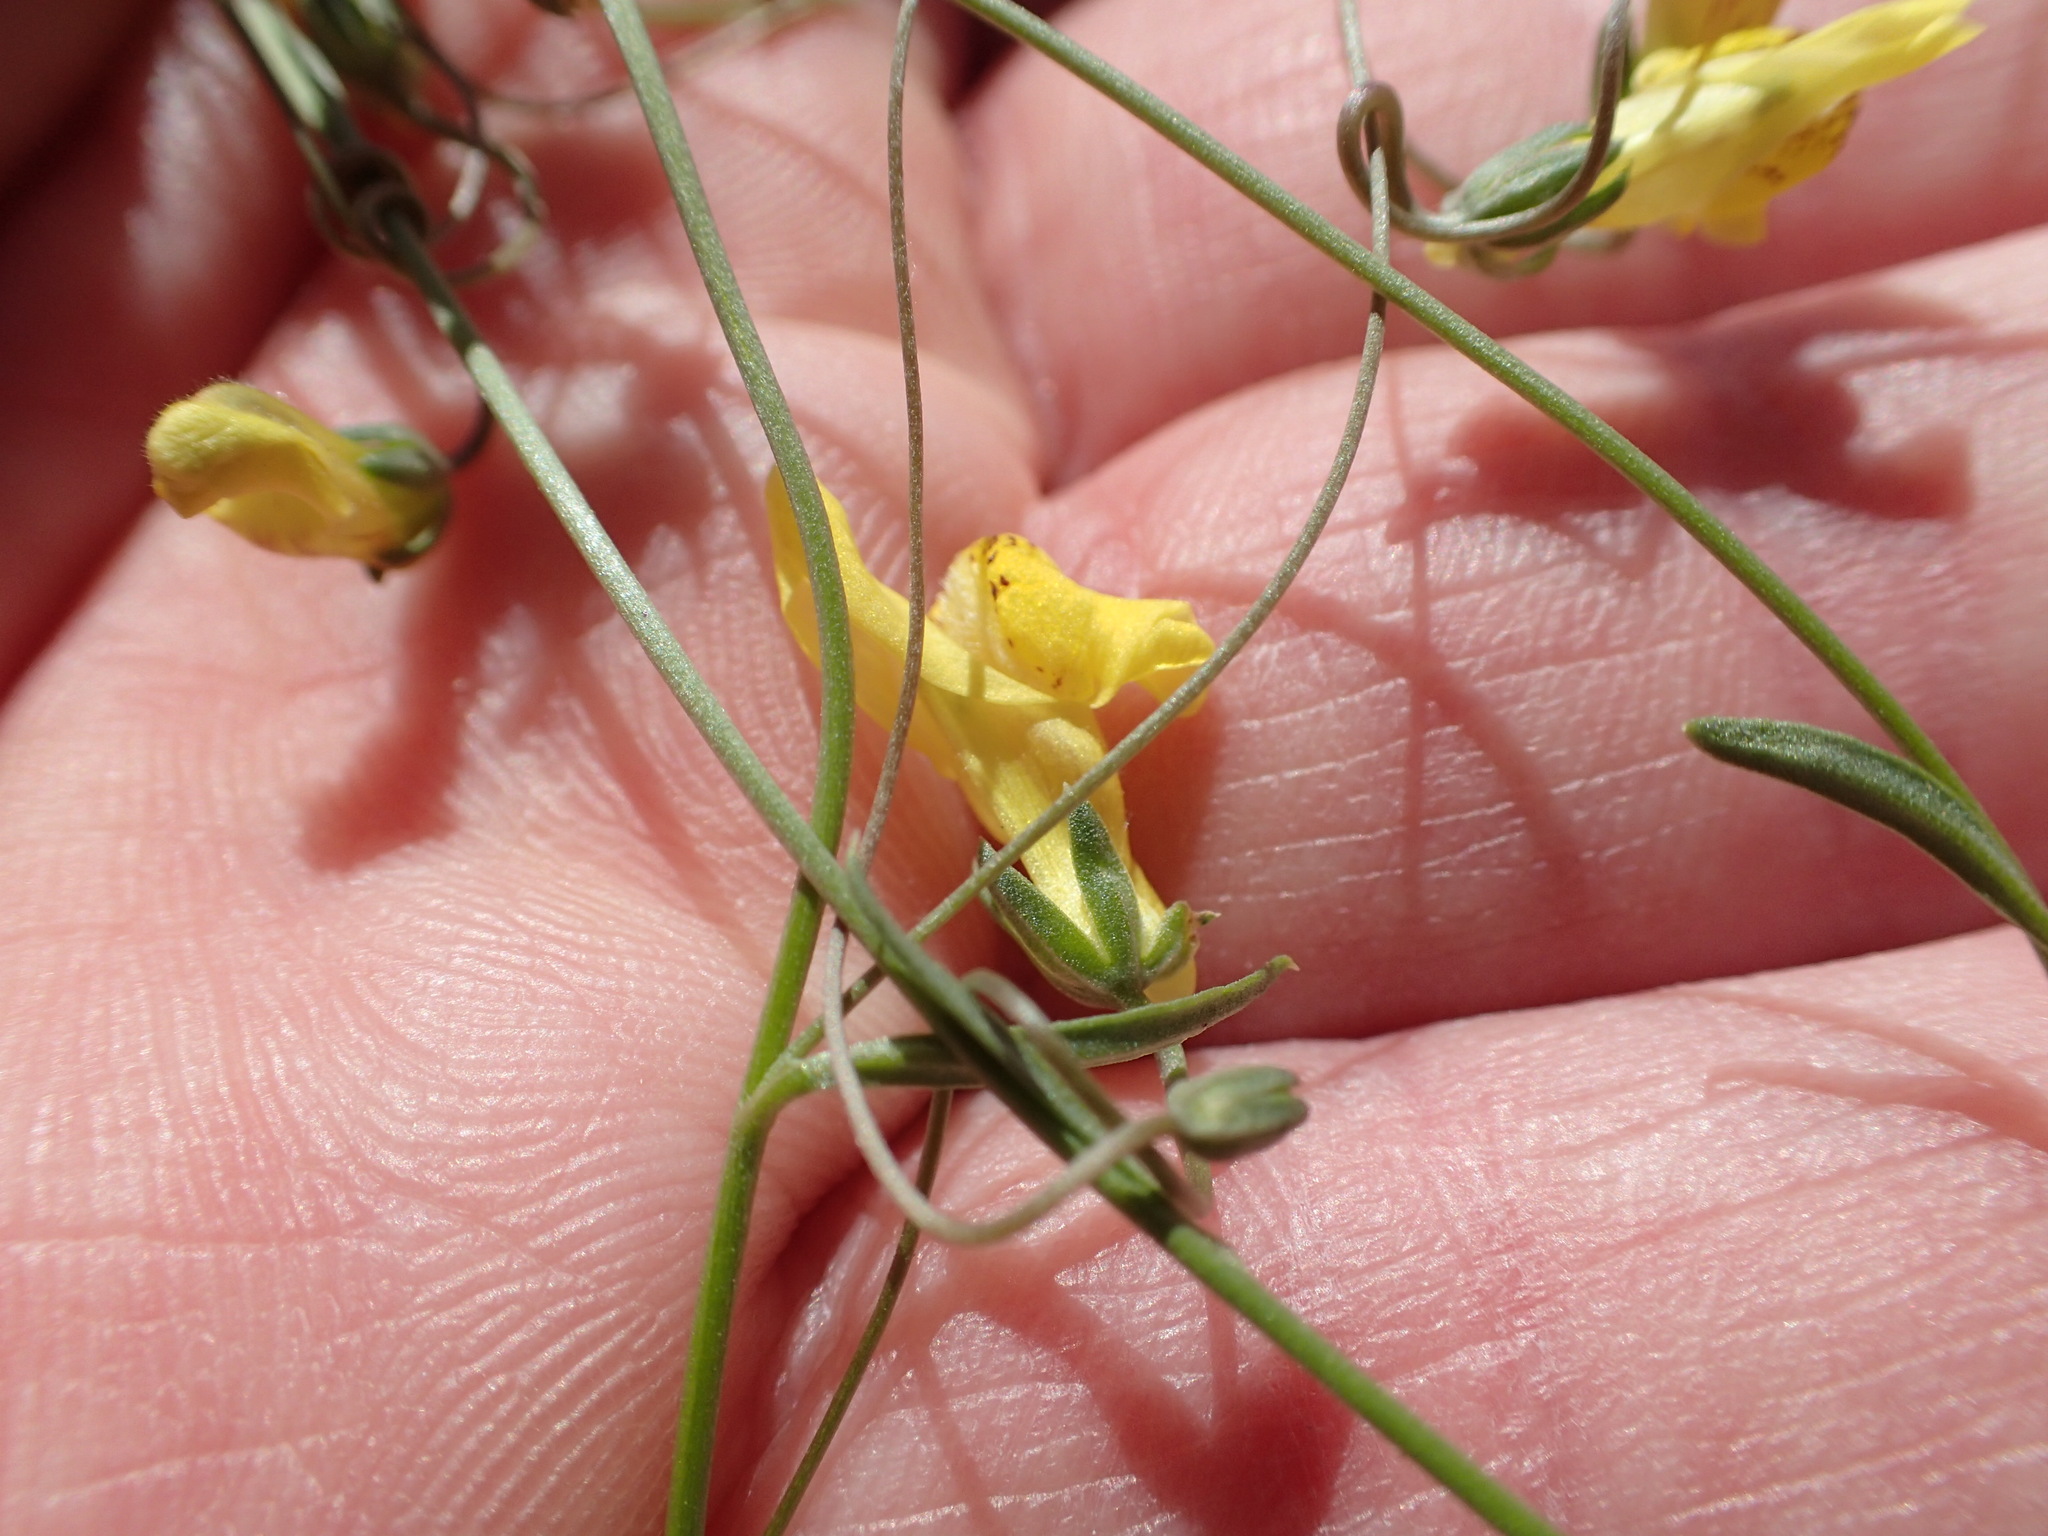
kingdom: Plantae
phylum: Tracheophyta
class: Magnoliopsida
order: Lamiales
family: Plantaginaceae
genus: Neogaerrhinum
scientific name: Neogaerrhinum filipes
